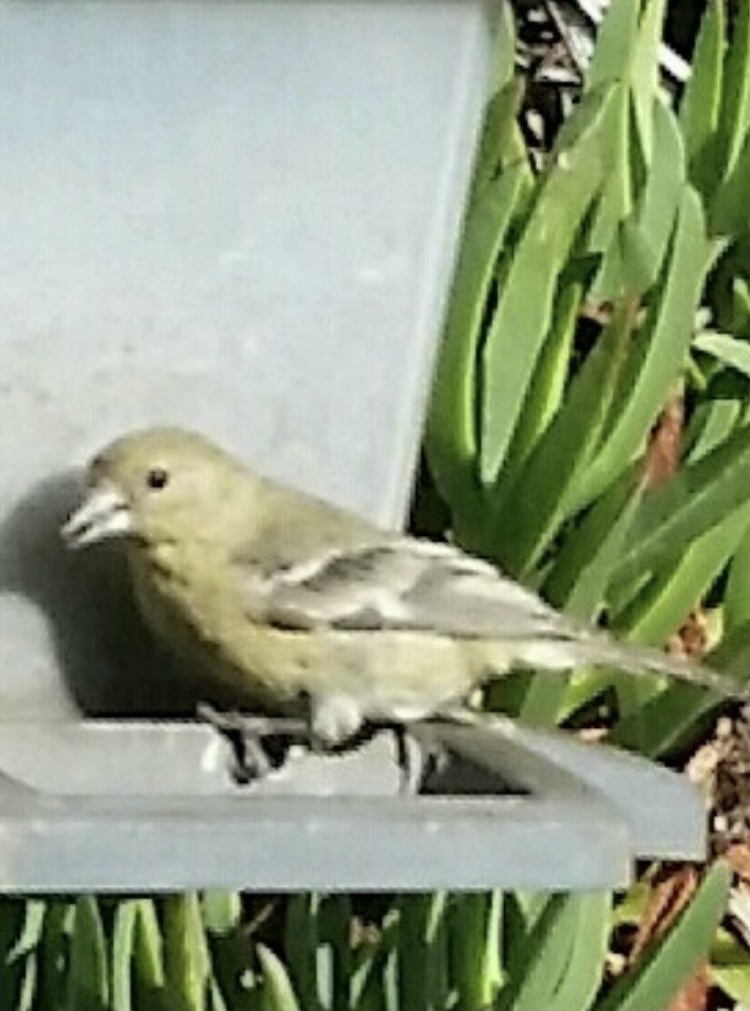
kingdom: Animalia
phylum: Chordata
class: Aves
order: Passeriformes
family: Fringillidae
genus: Spinus
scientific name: Spinus psaltria
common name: Lesser goldfinch
